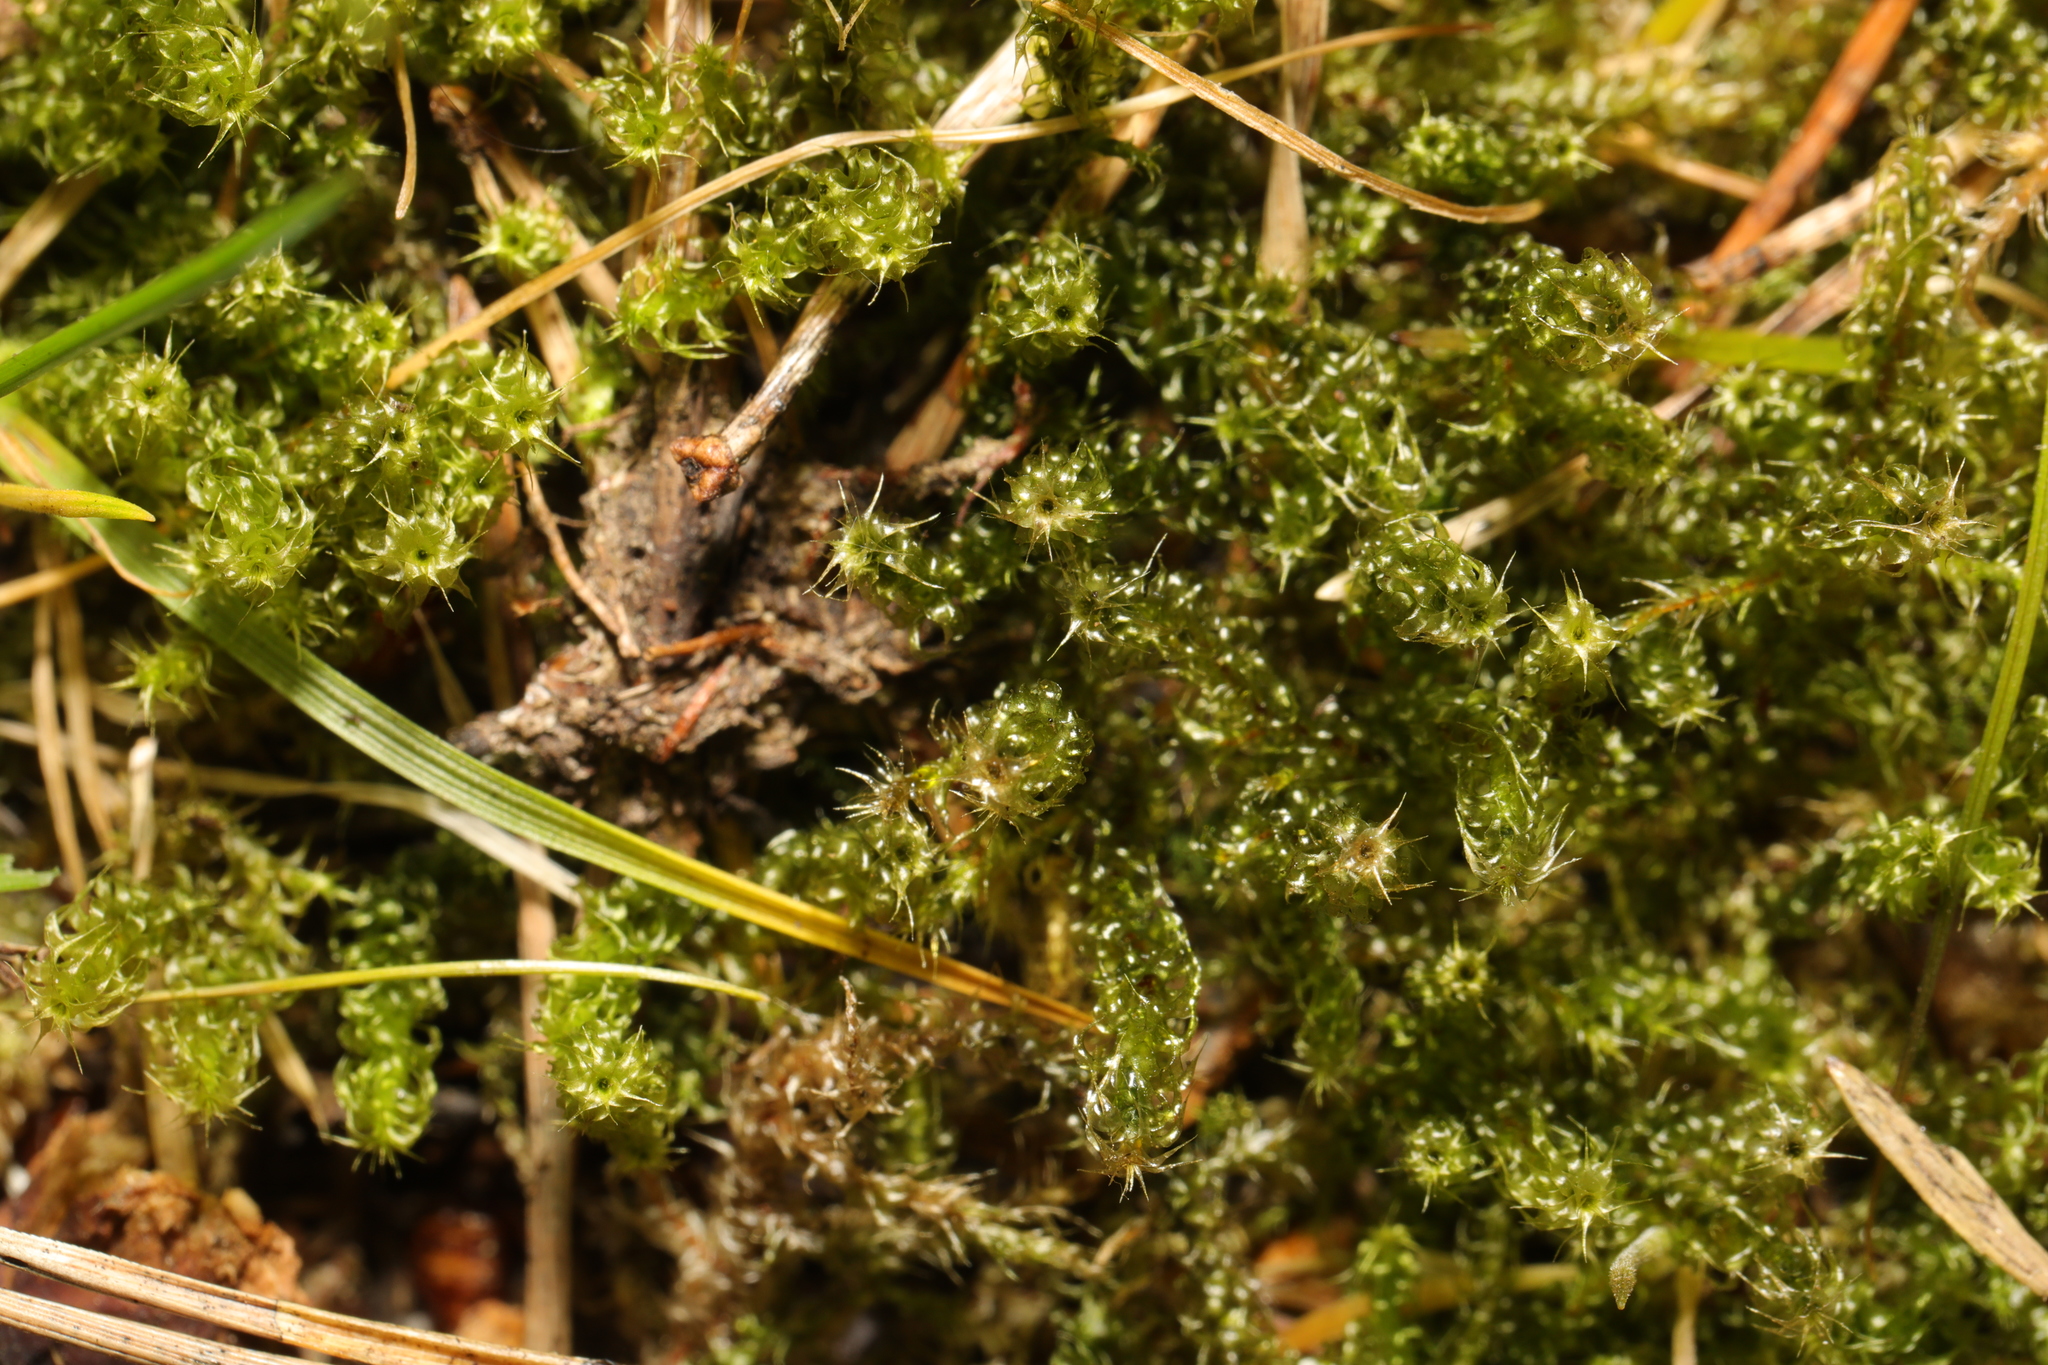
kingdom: Plantae
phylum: Bryophyta
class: Bryopsida
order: Hypnales
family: Hylocomiaceae
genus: Rhytidiadelphus
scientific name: Rhytidiadelphus squarrosus
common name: Springy turf-moss
